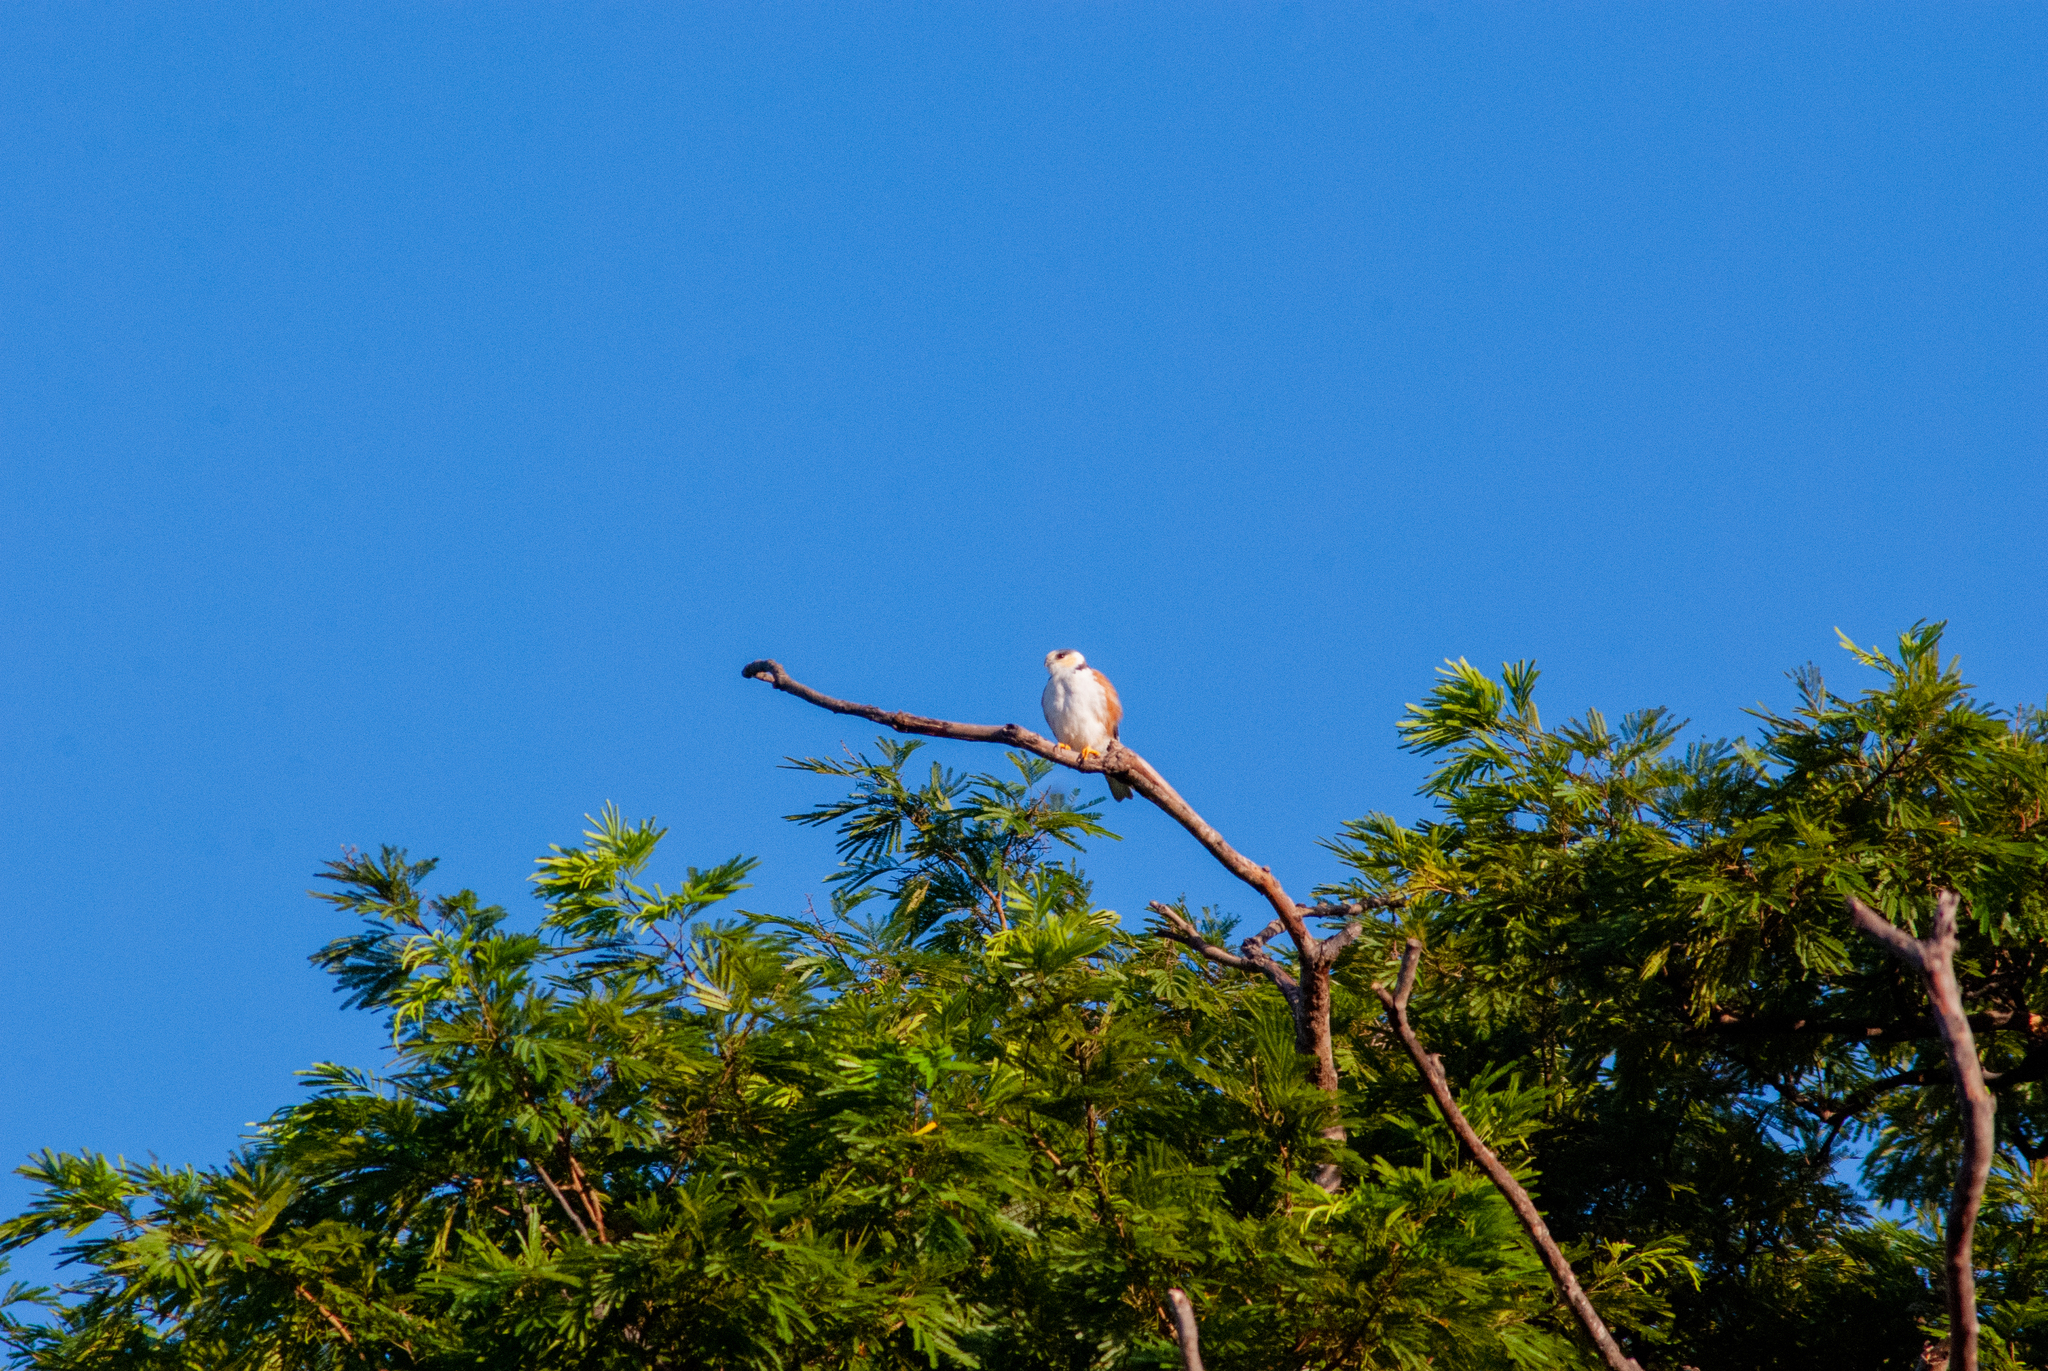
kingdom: Animalia
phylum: Chordata
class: Aves
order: Accipitriformes
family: Accipitridae
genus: Gampsonyx
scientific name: Gampsonyx swainsonii
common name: Pearl kite
